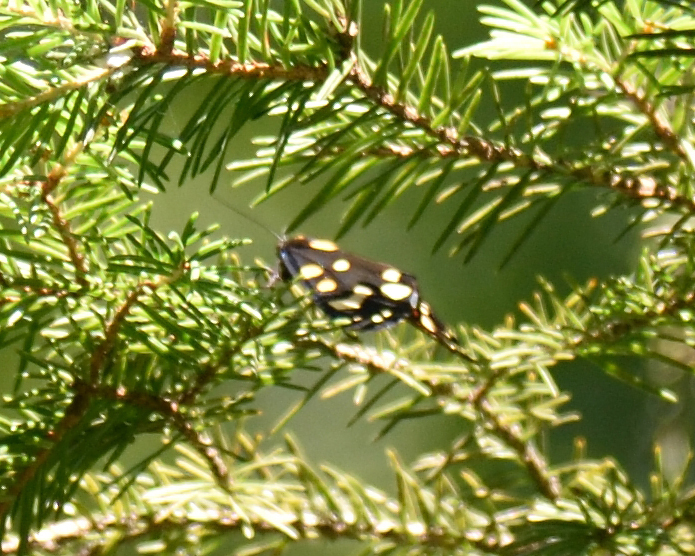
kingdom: Animalia
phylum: Arthropoda
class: Insecta
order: Lepidoptera
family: Erebidae
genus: Callimorpha
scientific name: Callimorpha dominula
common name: Scarlet tiger
